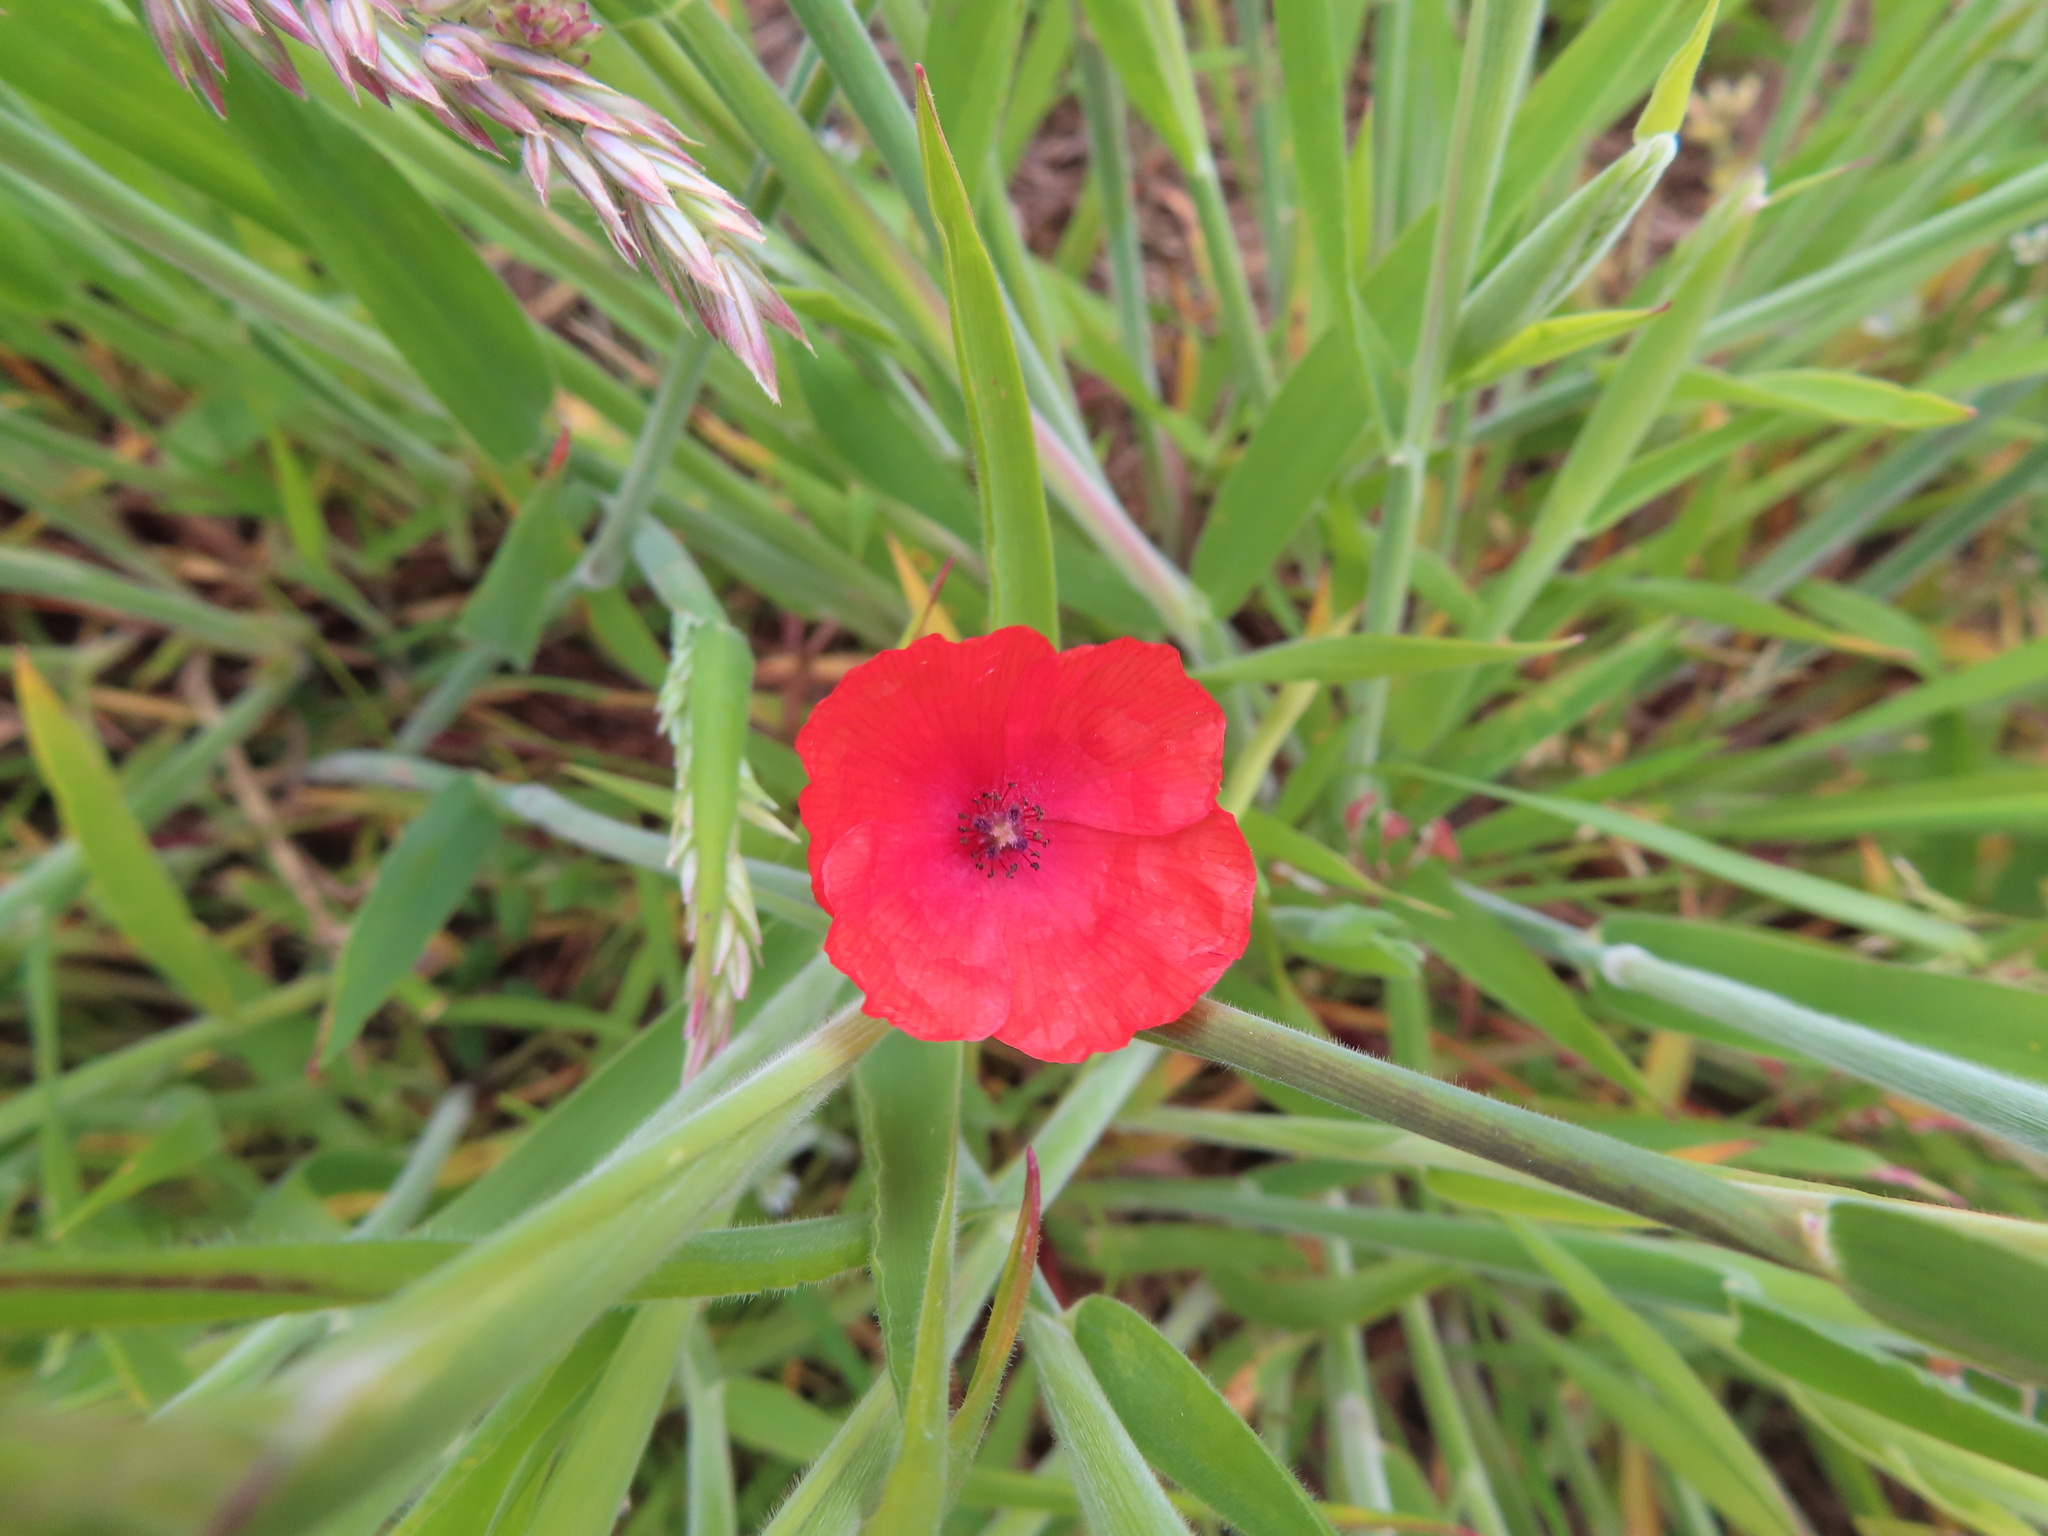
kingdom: Plantae
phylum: Tracheophyta
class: Magnoliopsida
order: Ranunculales
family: Papaveraceae
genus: Papaver
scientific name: Papaver rhoeas
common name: Corn poppy
